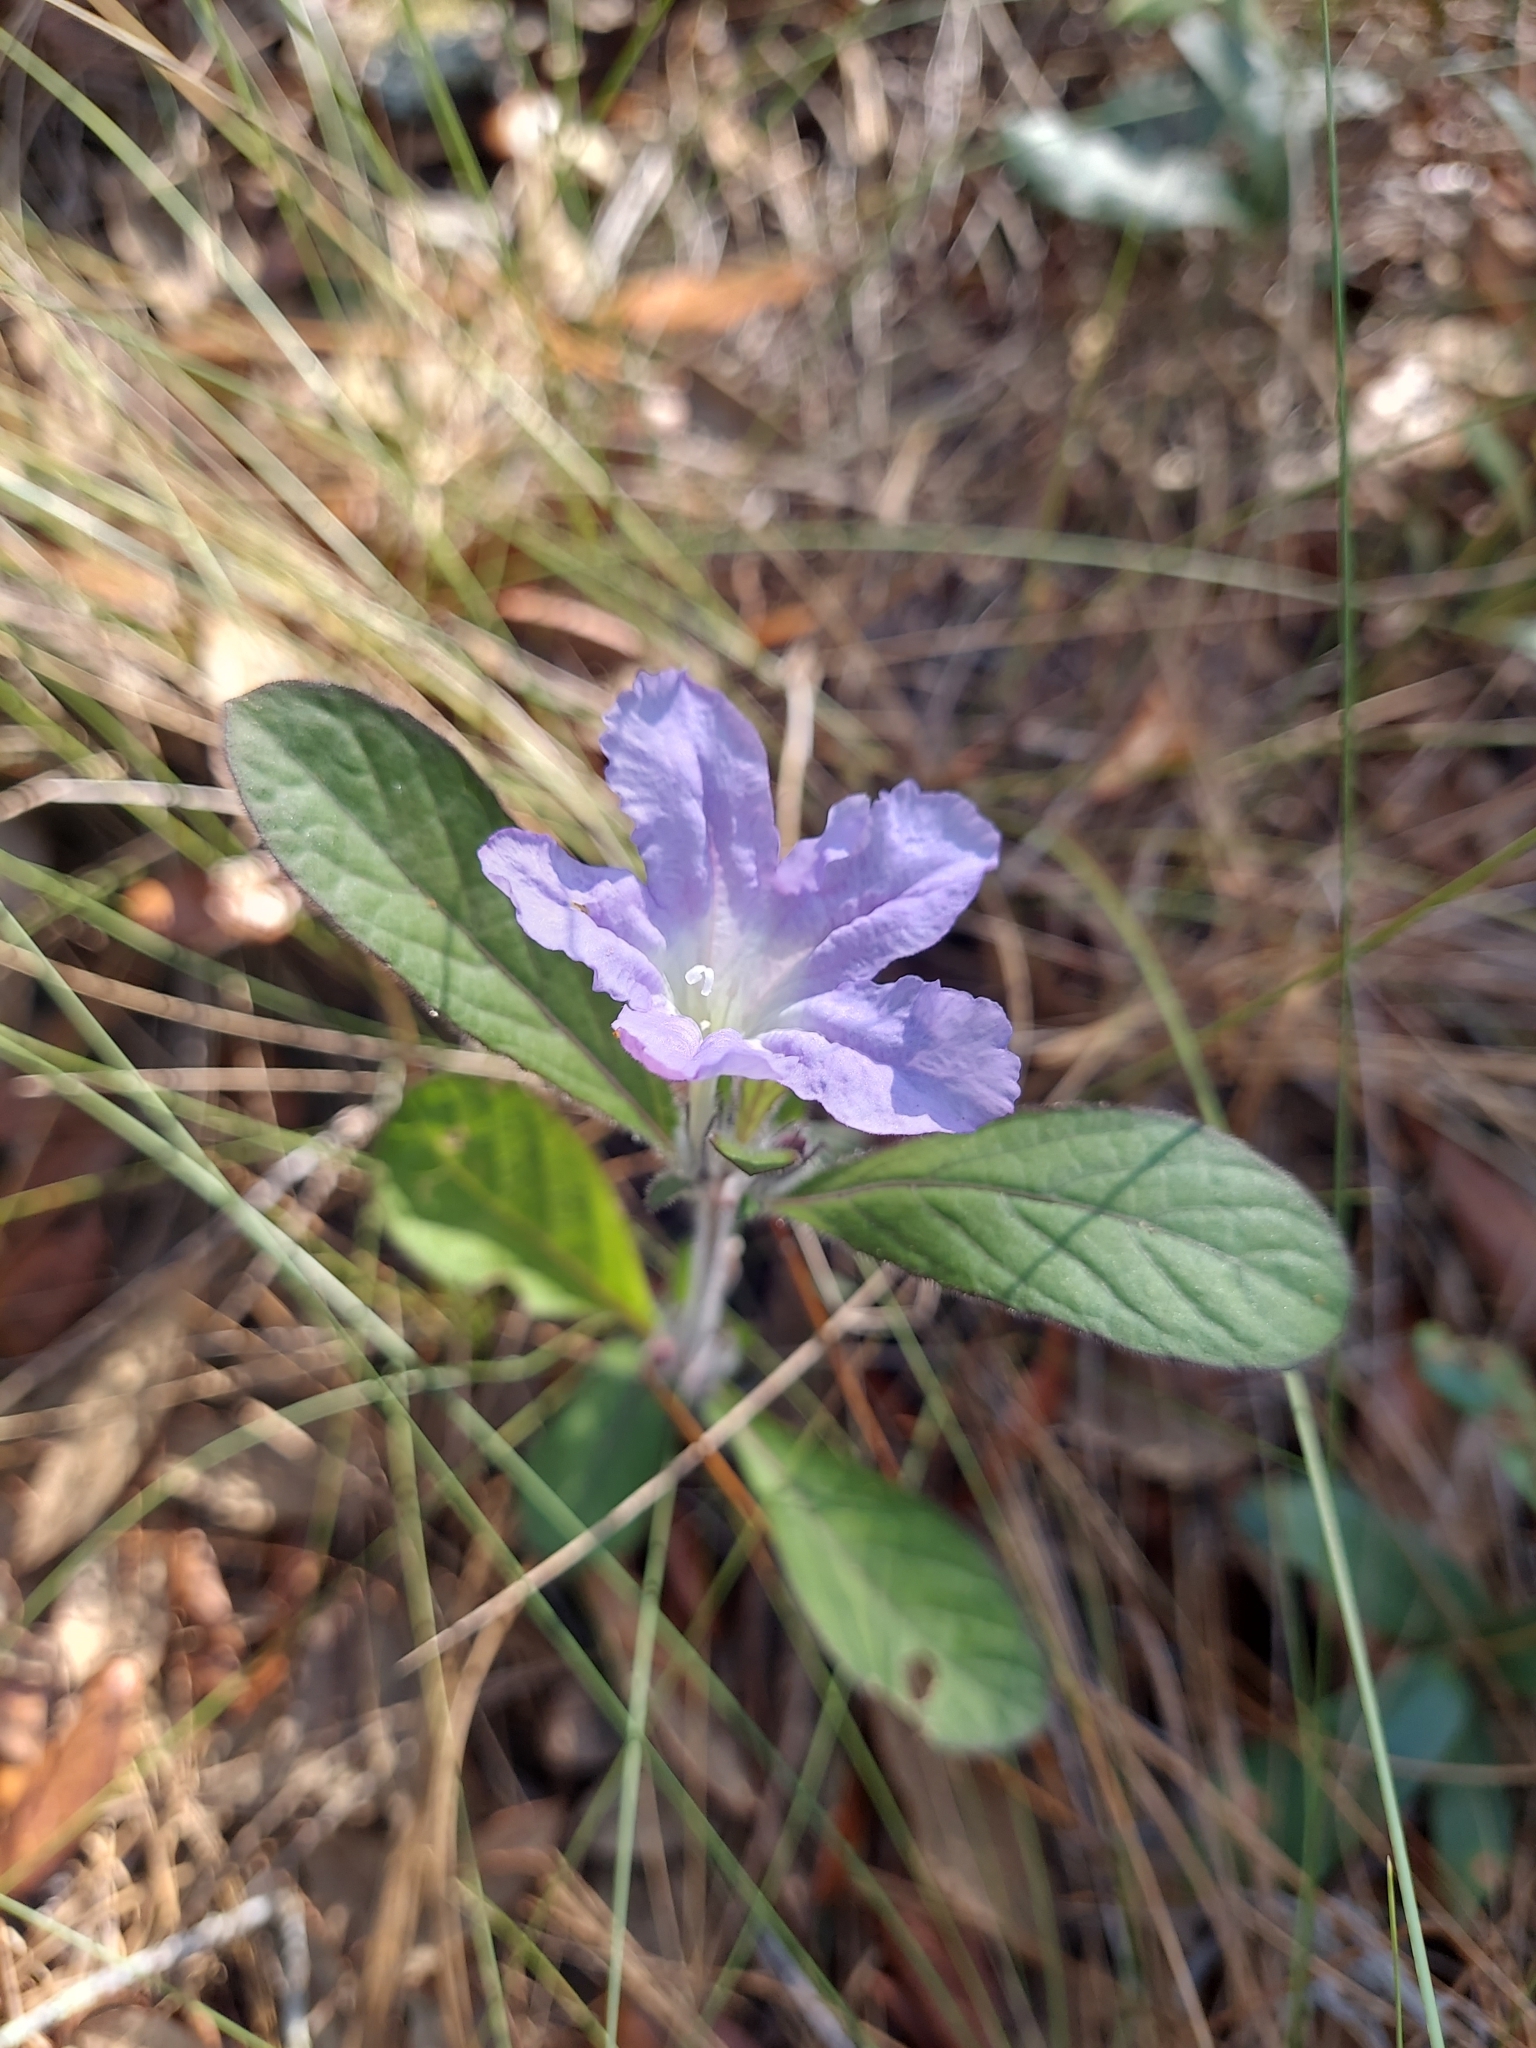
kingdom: Plantae
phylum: Tracheophyta
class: Magnoliopsida
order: Lamiales
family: Acanthaceae
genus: Ruellia
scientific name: Ruellia caroliniensis
